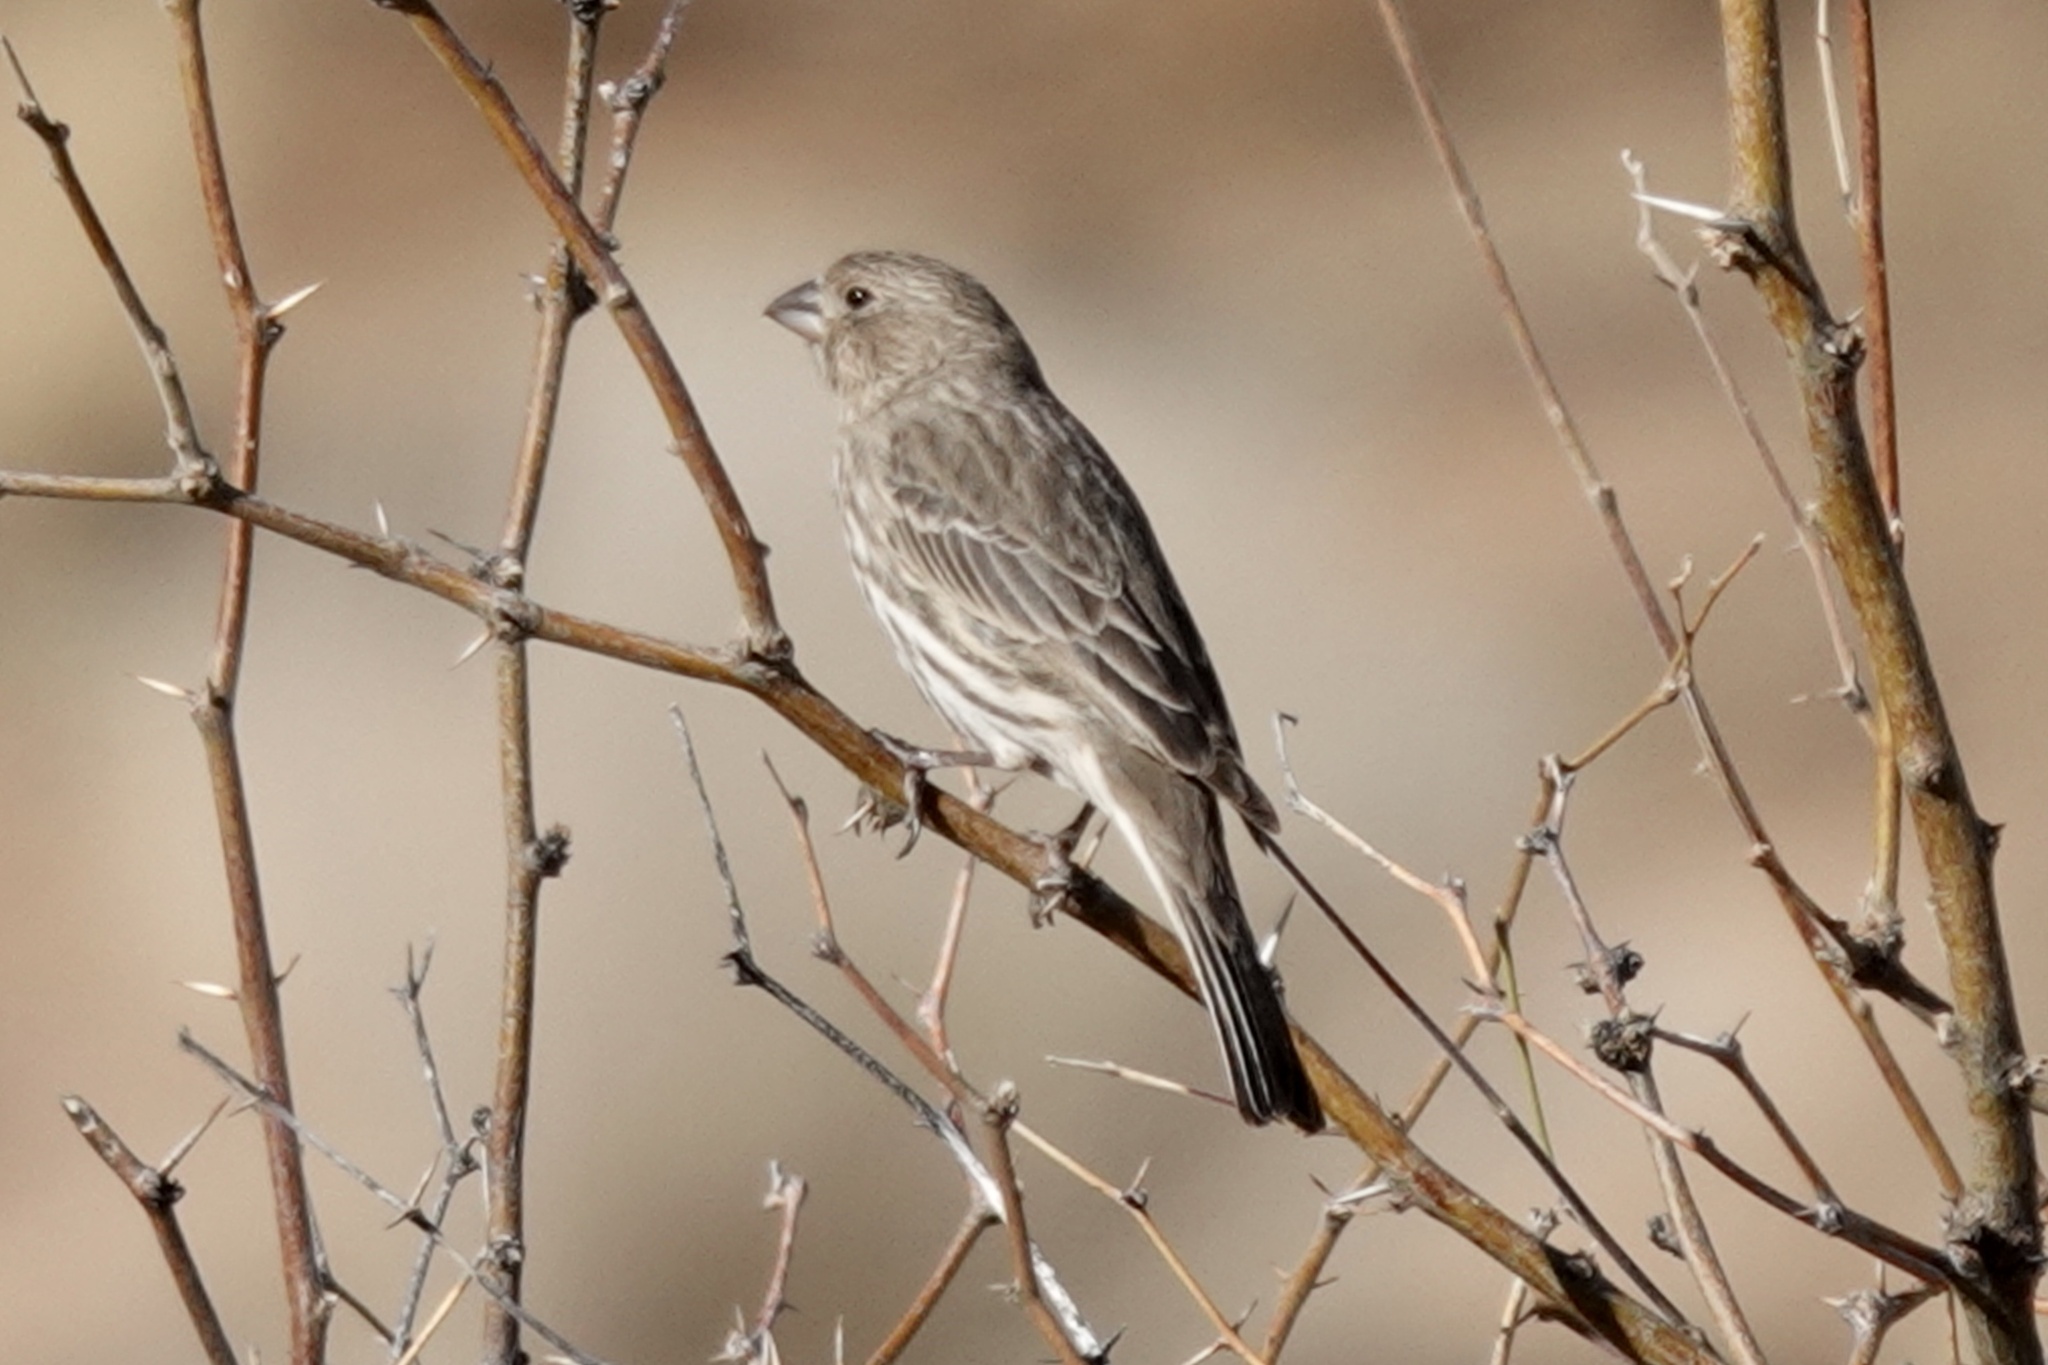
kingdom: Animalia
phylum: Chordata
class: Aves
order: Passeriformes
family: Fringillidae
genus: Haemorhous
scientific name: Haemorhous mexicanus
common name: House finch
